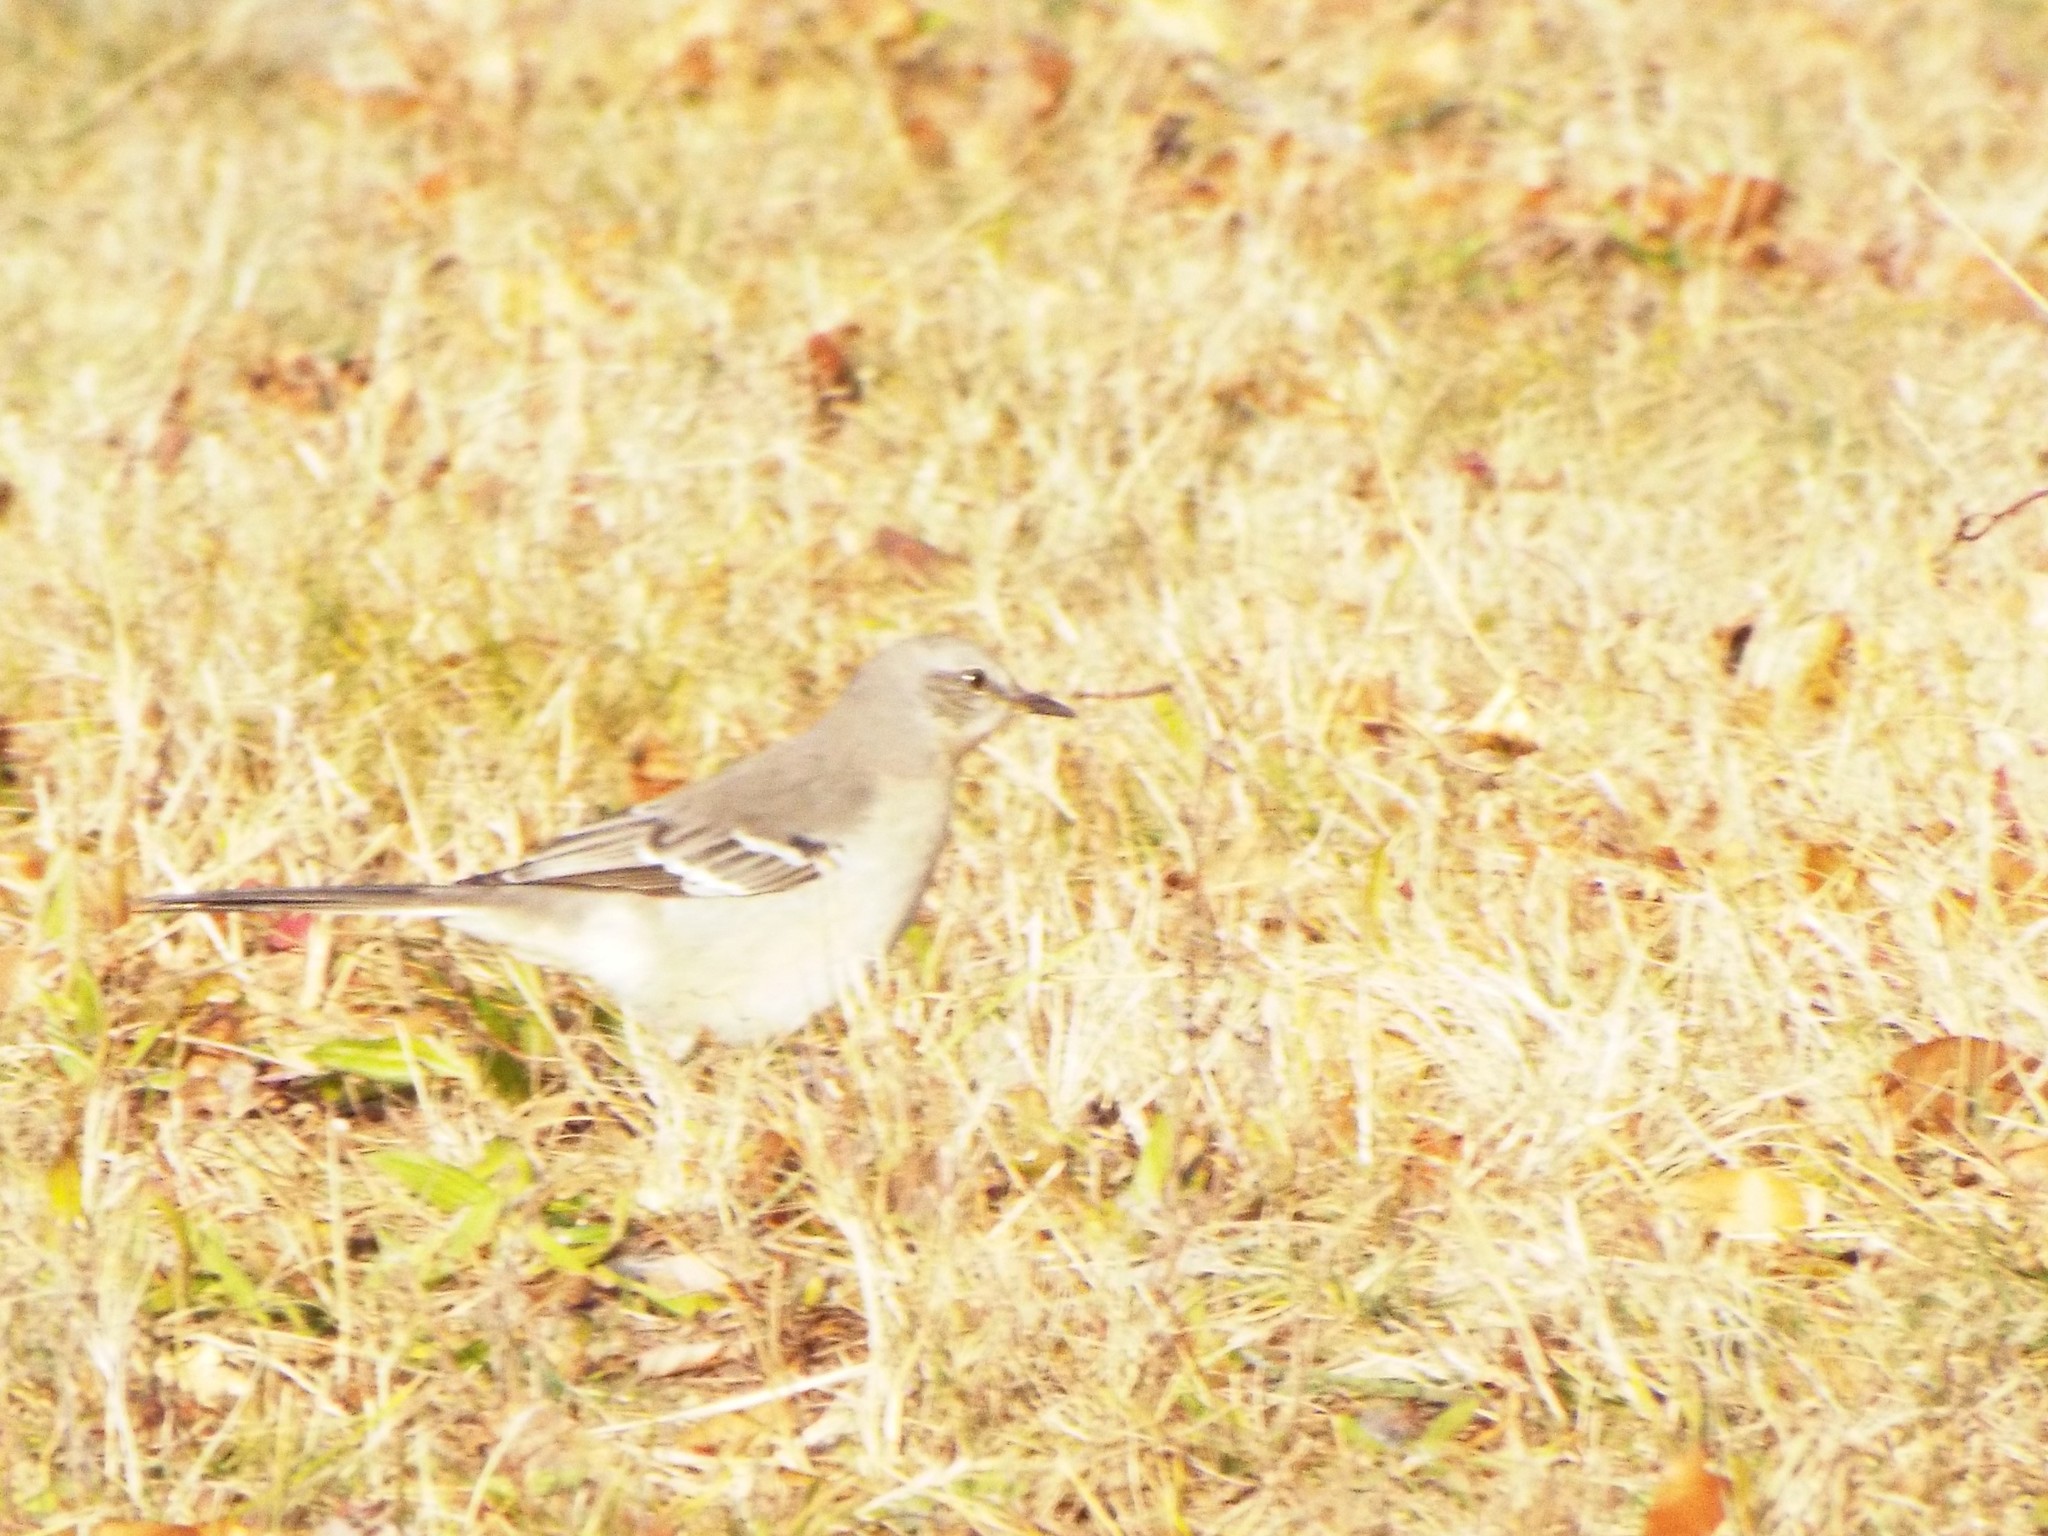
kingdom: Animalia
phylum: Chordata
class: Aves
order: Passeriformes
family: Mimidae
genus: Mimus
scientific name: Mimus polyglottos
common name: Northern mockingbird
